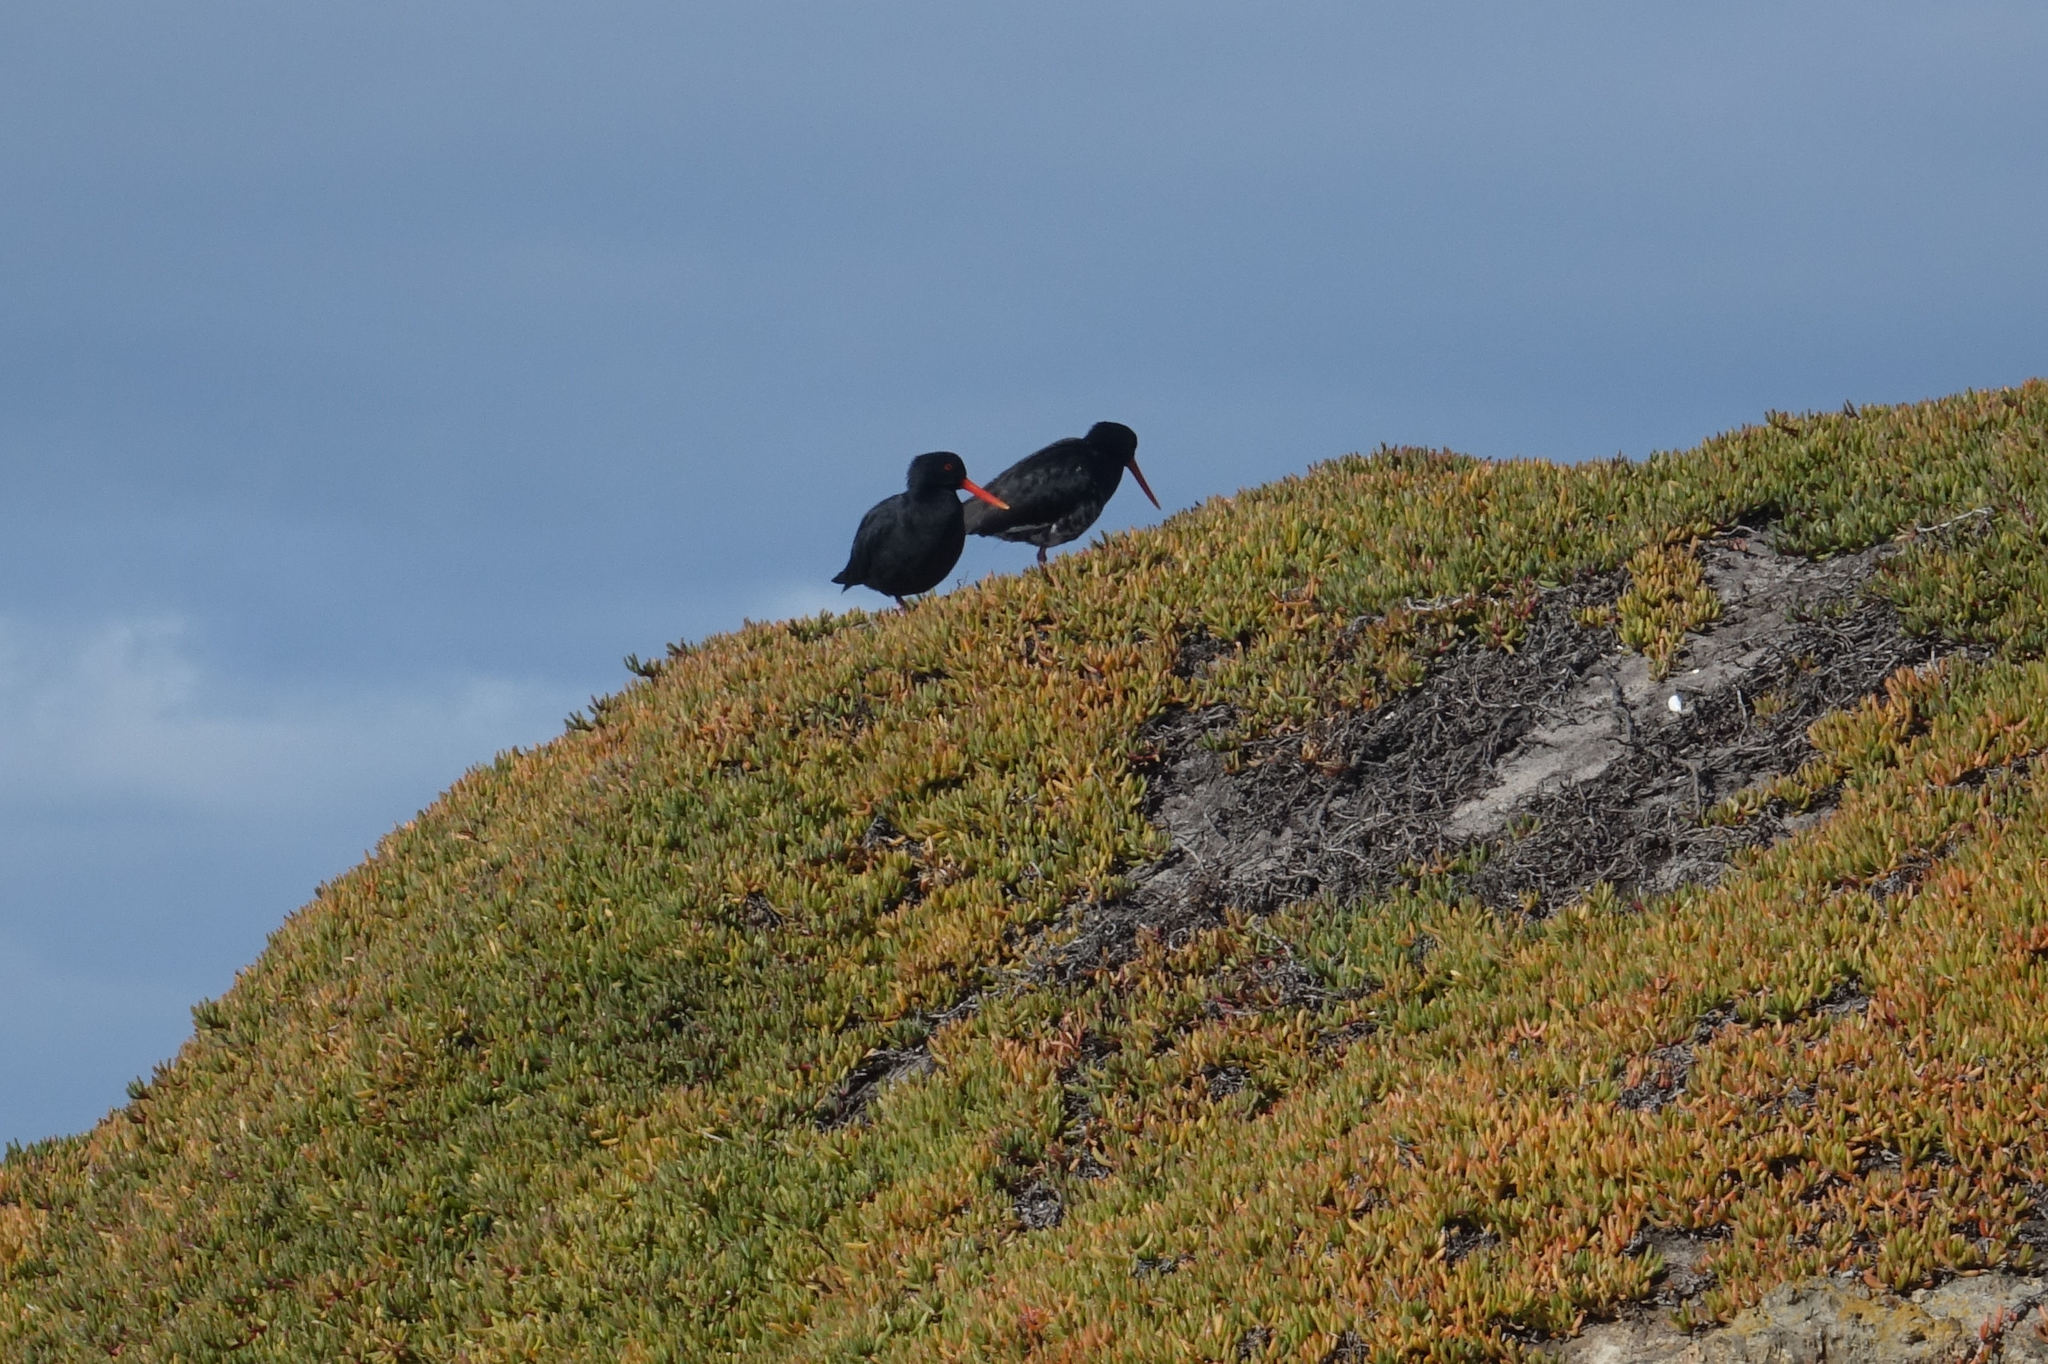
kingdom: Animalia
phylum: Chordata
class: Aves
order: Charadriiformes
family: Haematopodidae
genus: Haematopus
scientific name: Haematopus unicolor
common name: Variable oystercatcher
